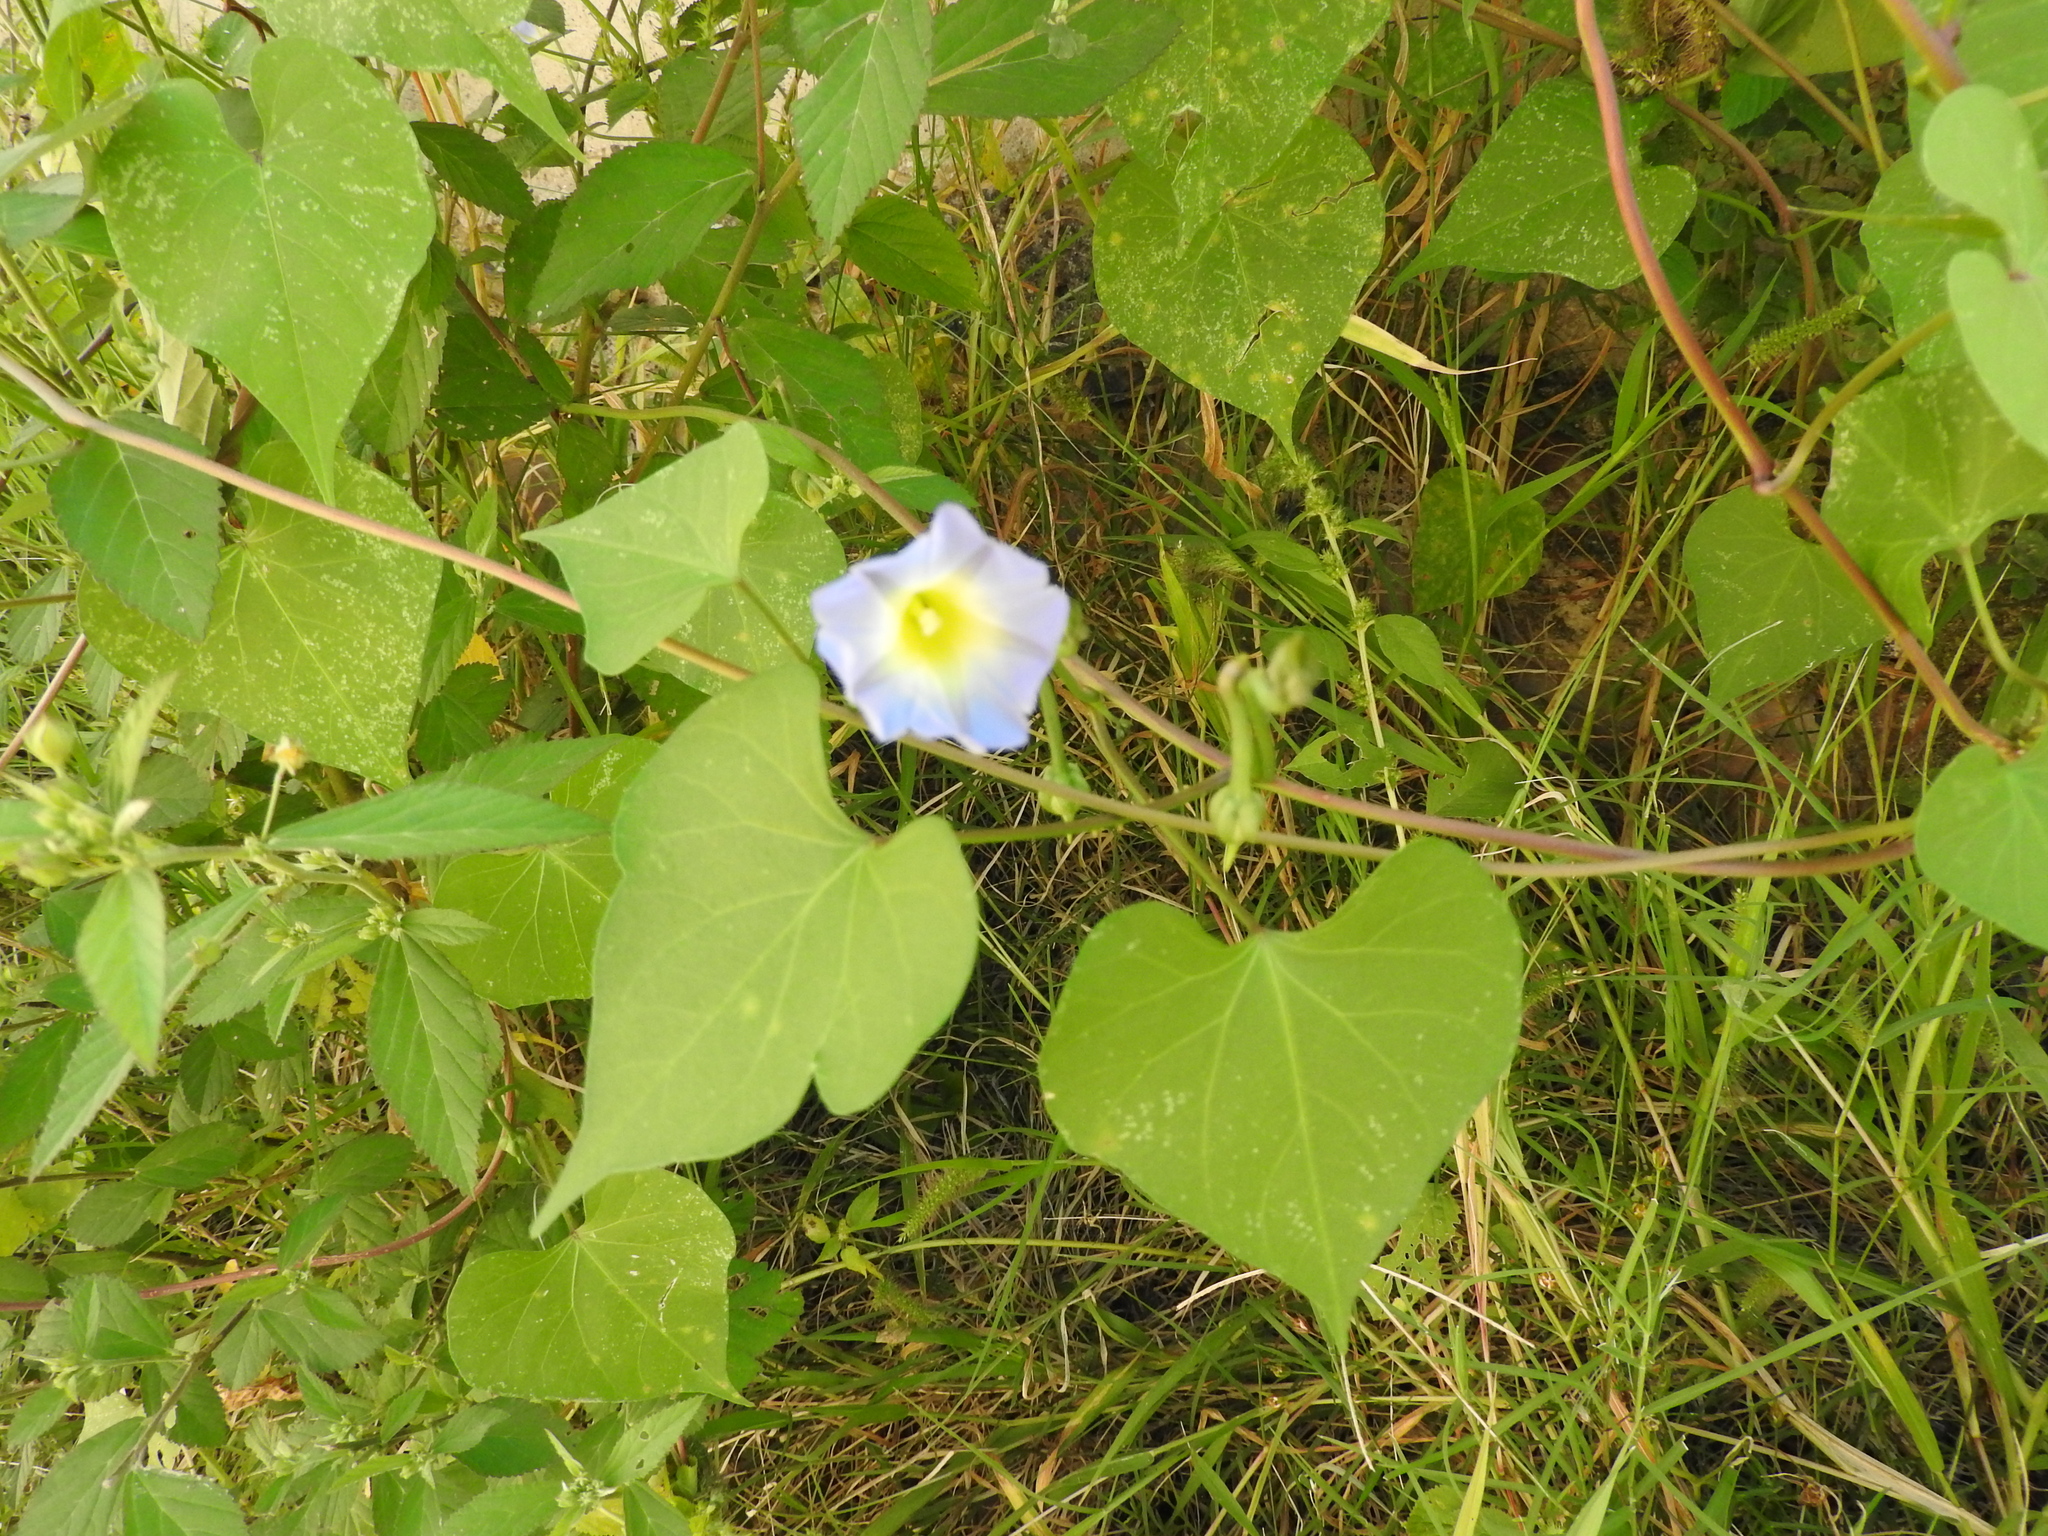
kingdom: Plantae
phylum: Tracheophyta
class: Magnoliopsida
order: Solanales
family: Convolvulaceae
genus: Ipomoea
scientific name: Ipomoea cardiophylla
